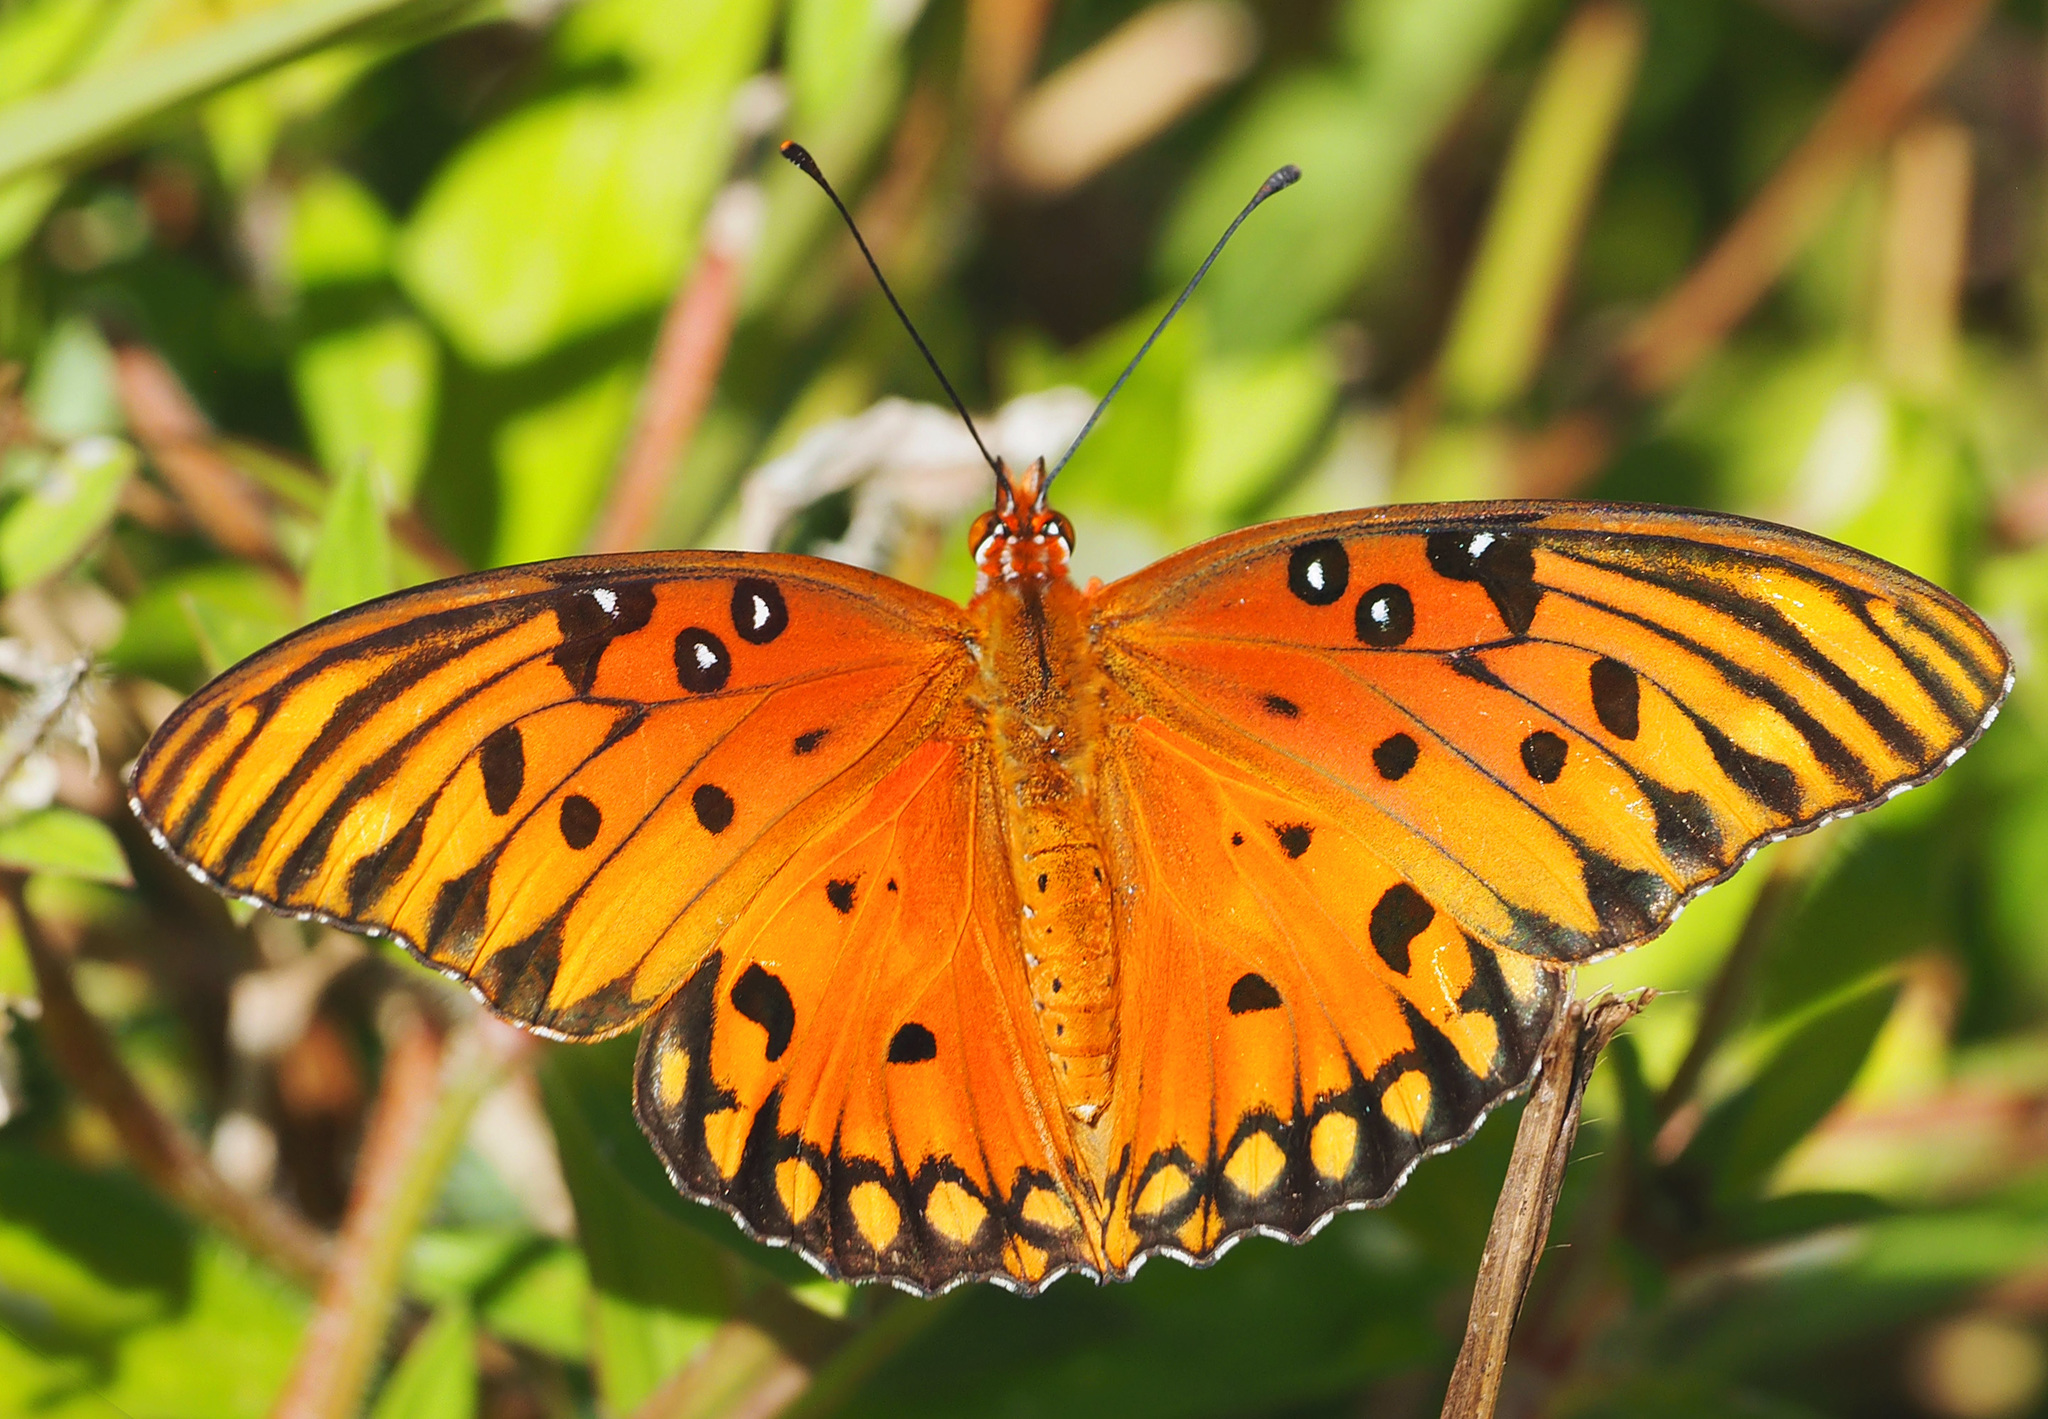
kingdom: Animalia
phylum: Arthropoda
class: Insecta
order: Lepidoptera
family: Nymphalidae
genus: Dione
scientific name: Dione vanillae
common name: Gulf fritillary
